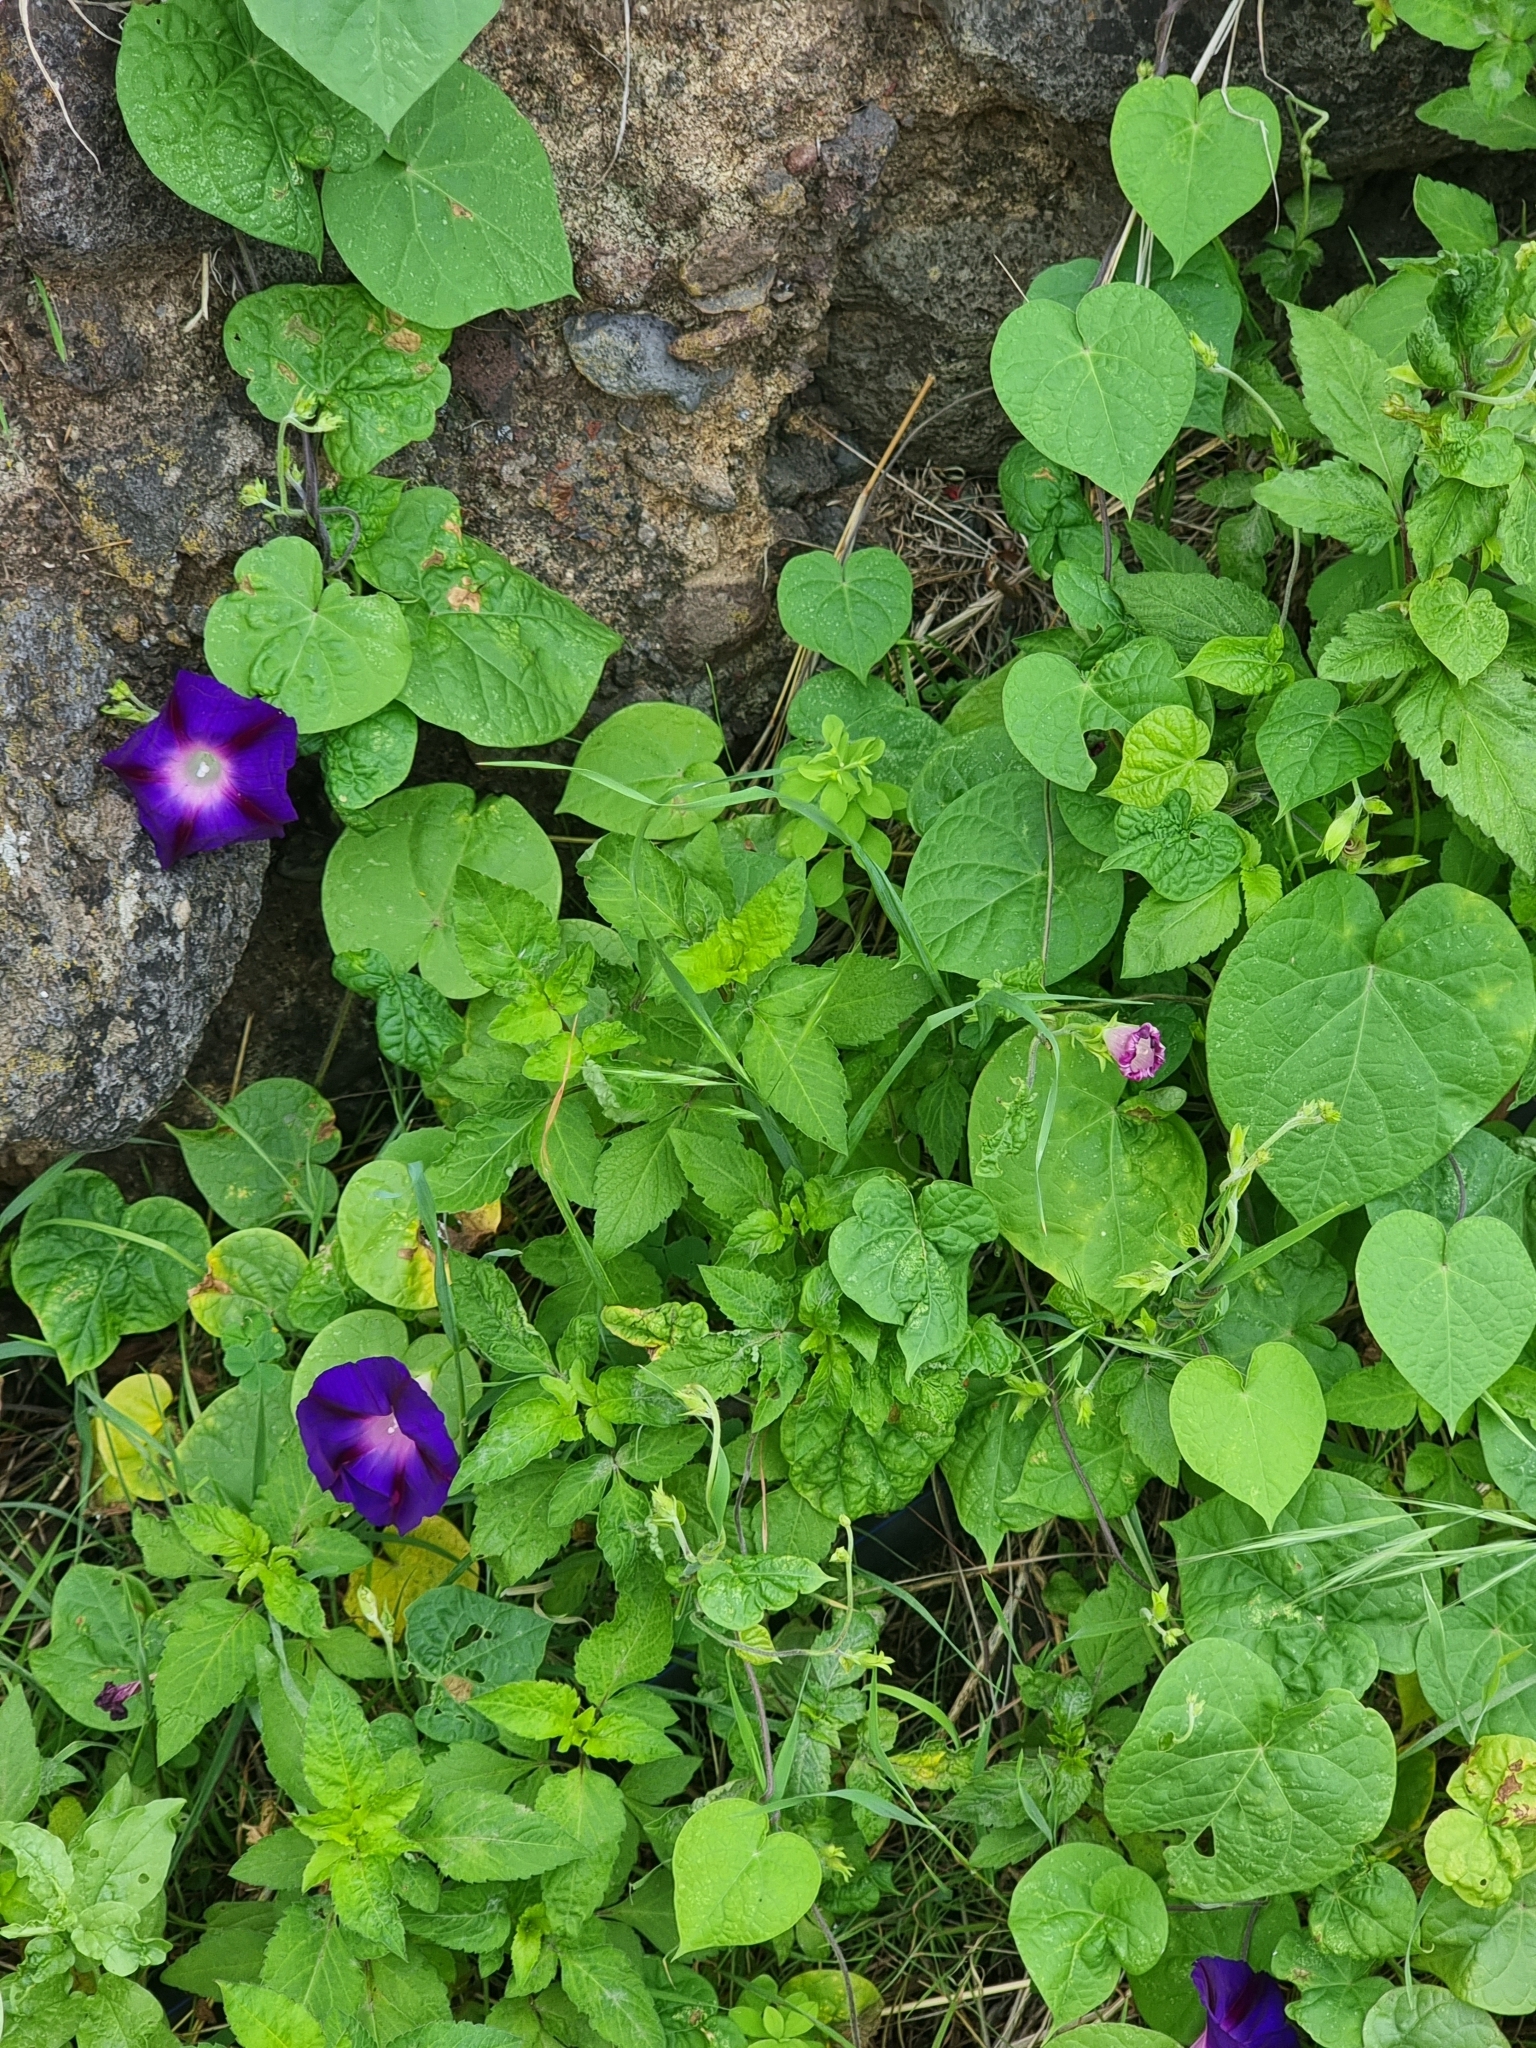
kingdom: Plantae
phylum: Tracheophyta
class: Magnoliopsida
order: Solanales
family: Convolvulaceae
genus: Ipomoea
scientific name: Ipomoea purpurea
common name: Common morning-glory
